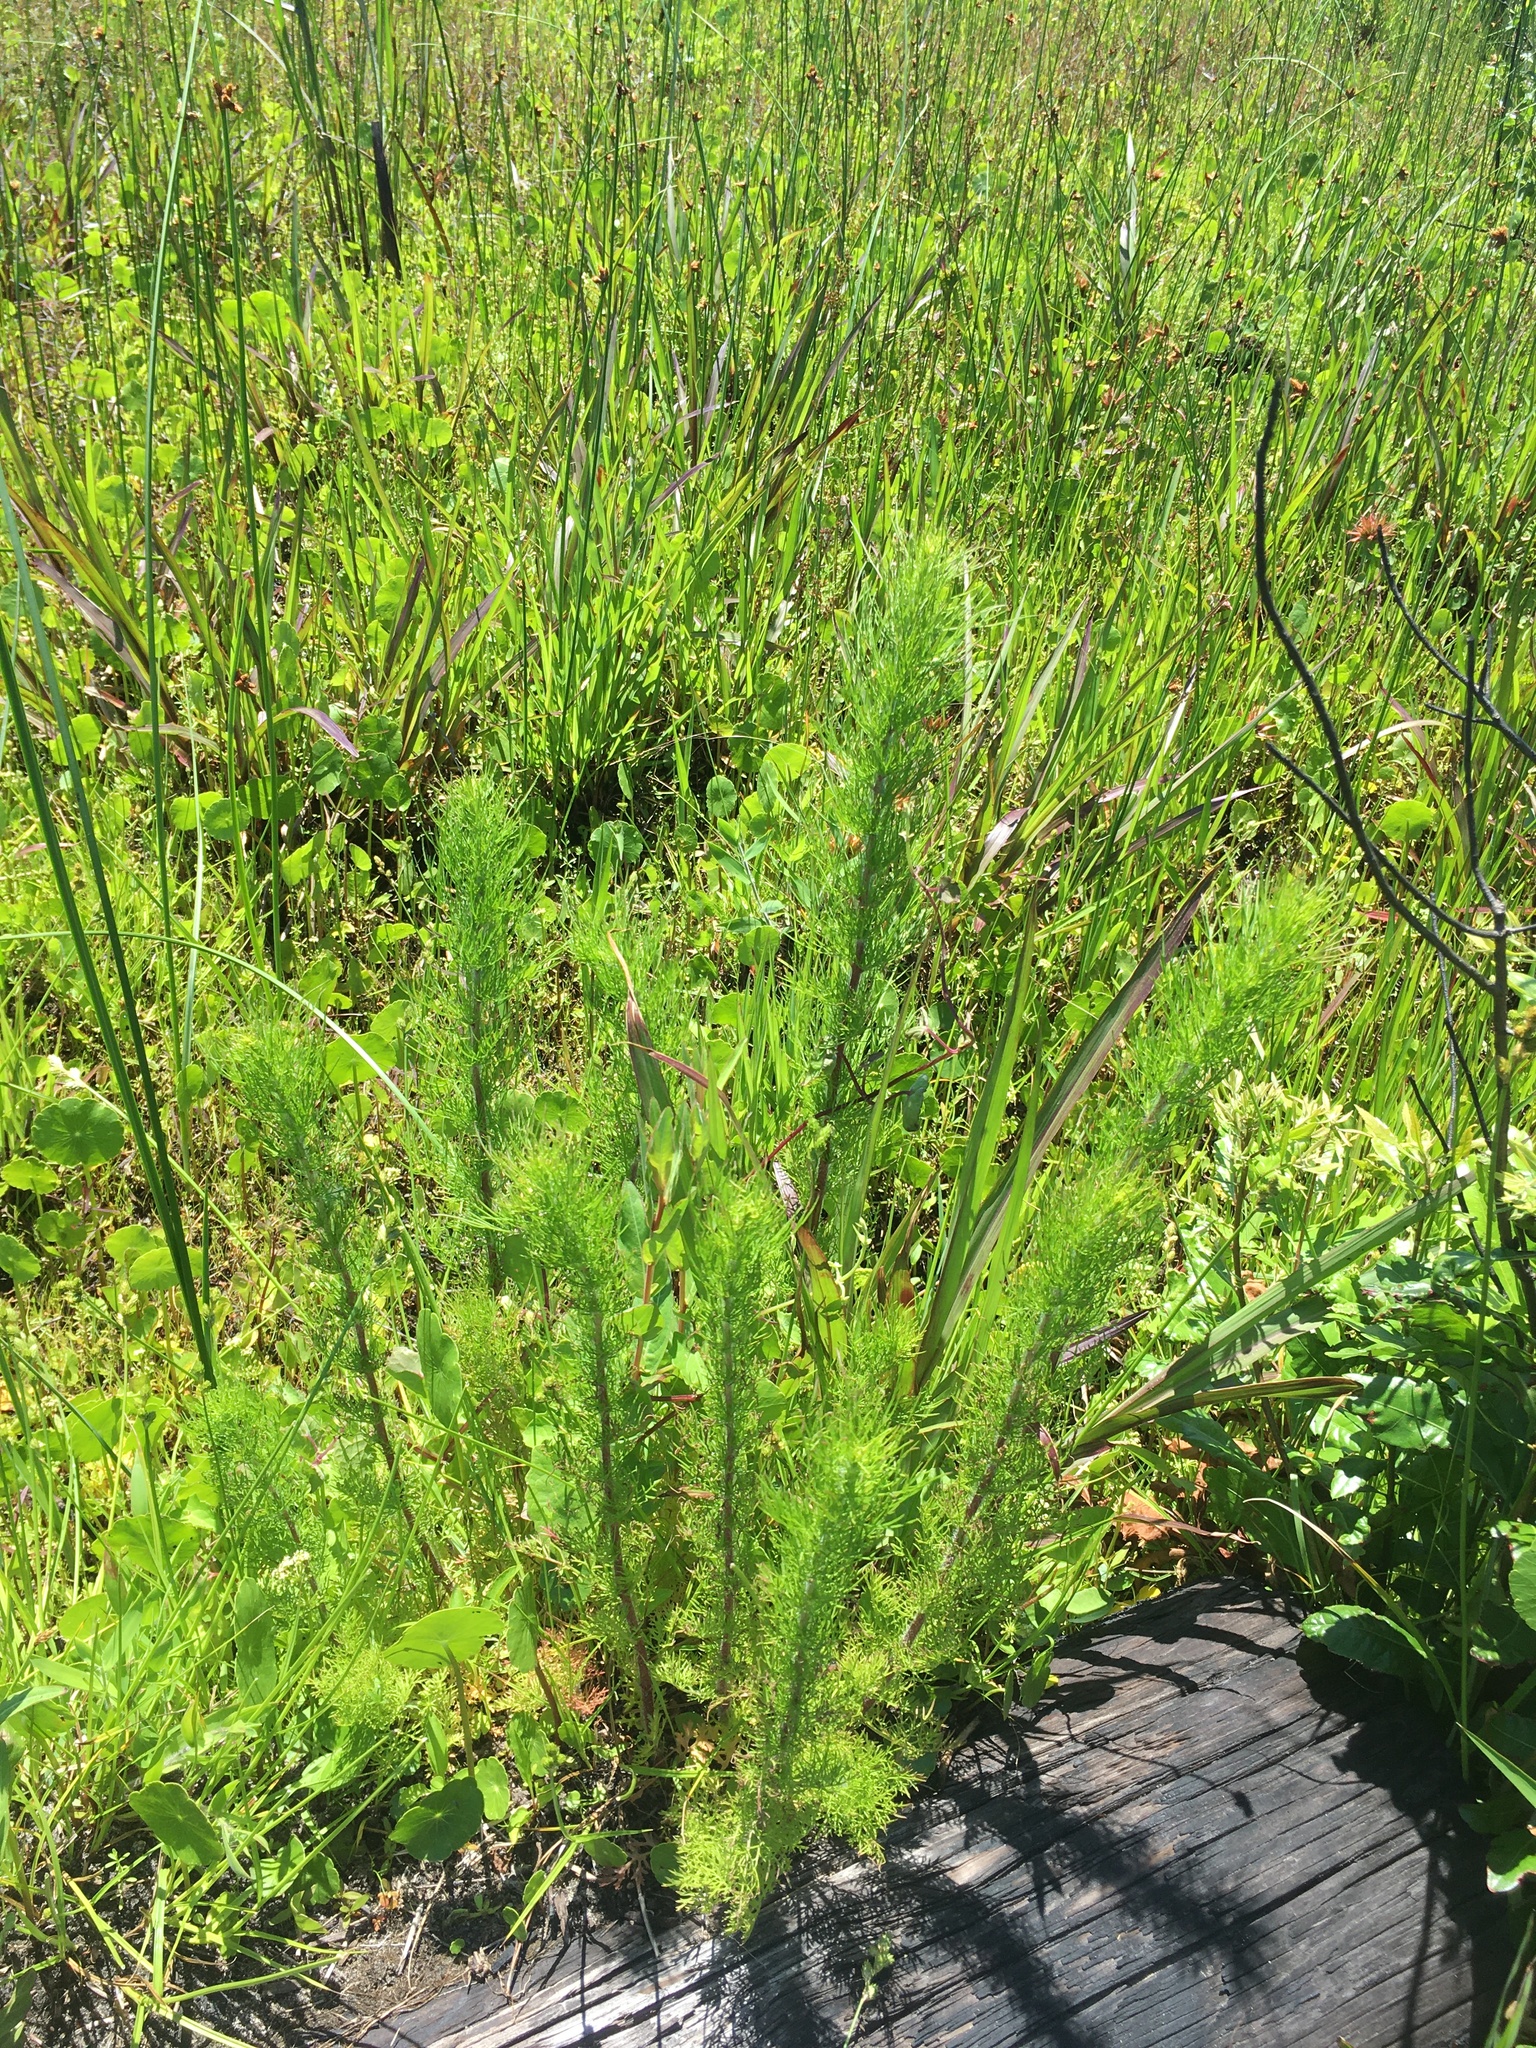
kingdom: Plantae
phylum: Tracheophyta
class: Magnoliopsida
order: Asterales
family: Asteraceae
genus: Eupatorium
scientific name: Eupatorium capillifolium
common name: Dog-fennel
